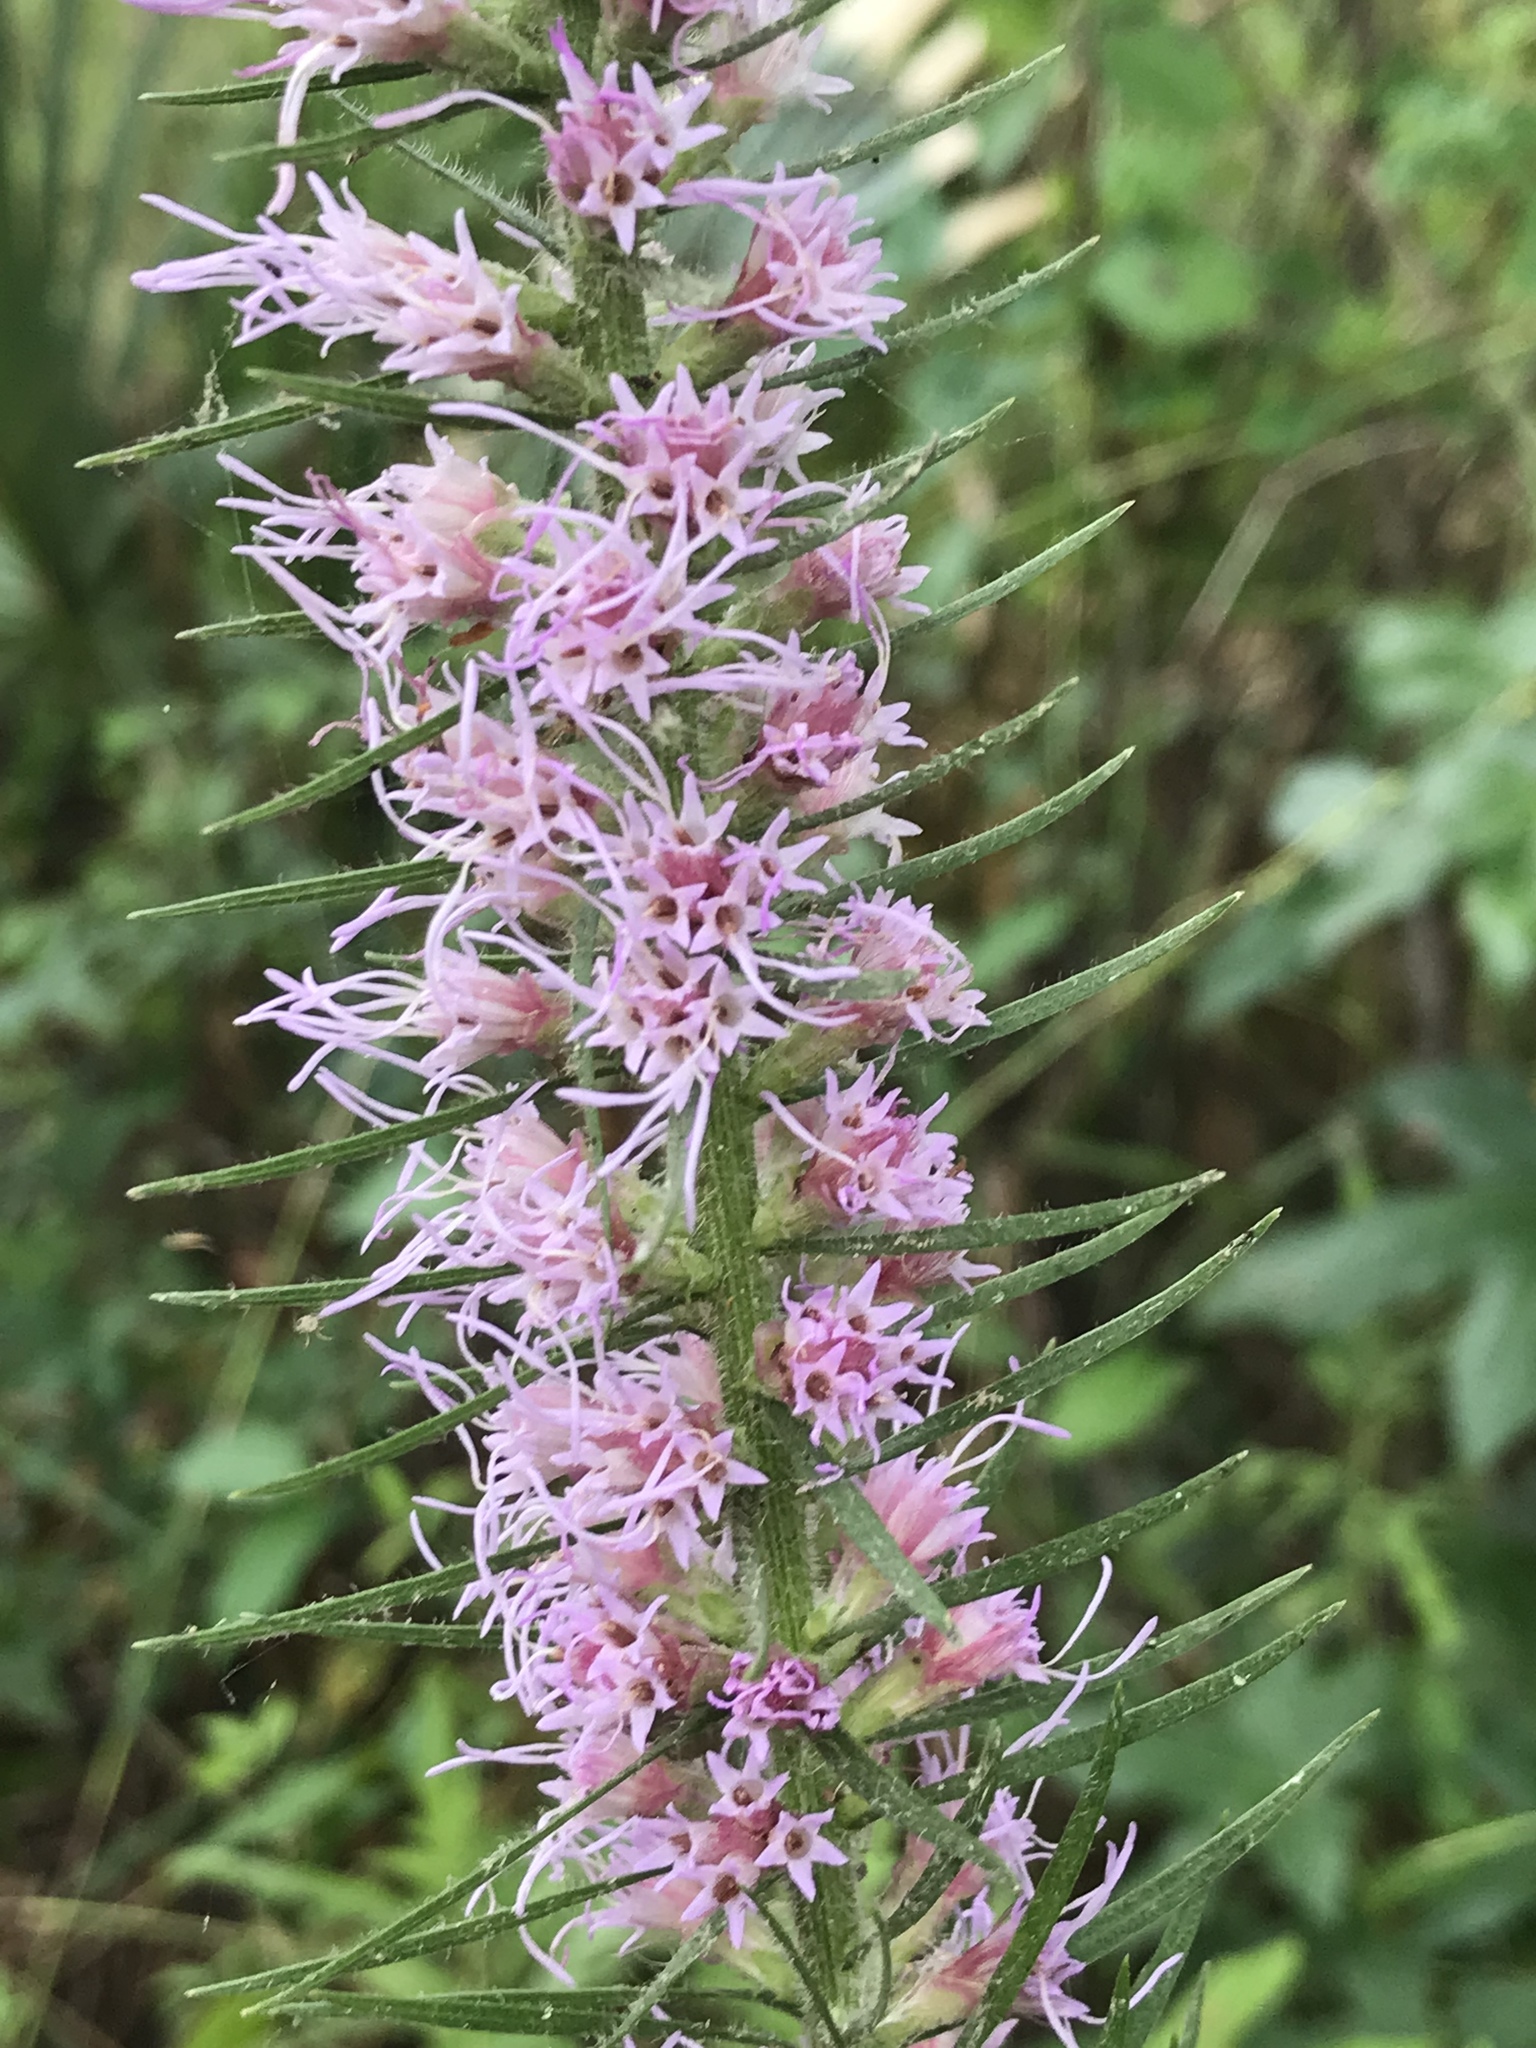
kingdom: Plantae
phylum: Tracheophyta
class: Magnoliopsida
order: Asterales
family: Asteraceae
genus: Liatris
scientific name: Liatris pycnostachya
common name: Cattail gayfeather
